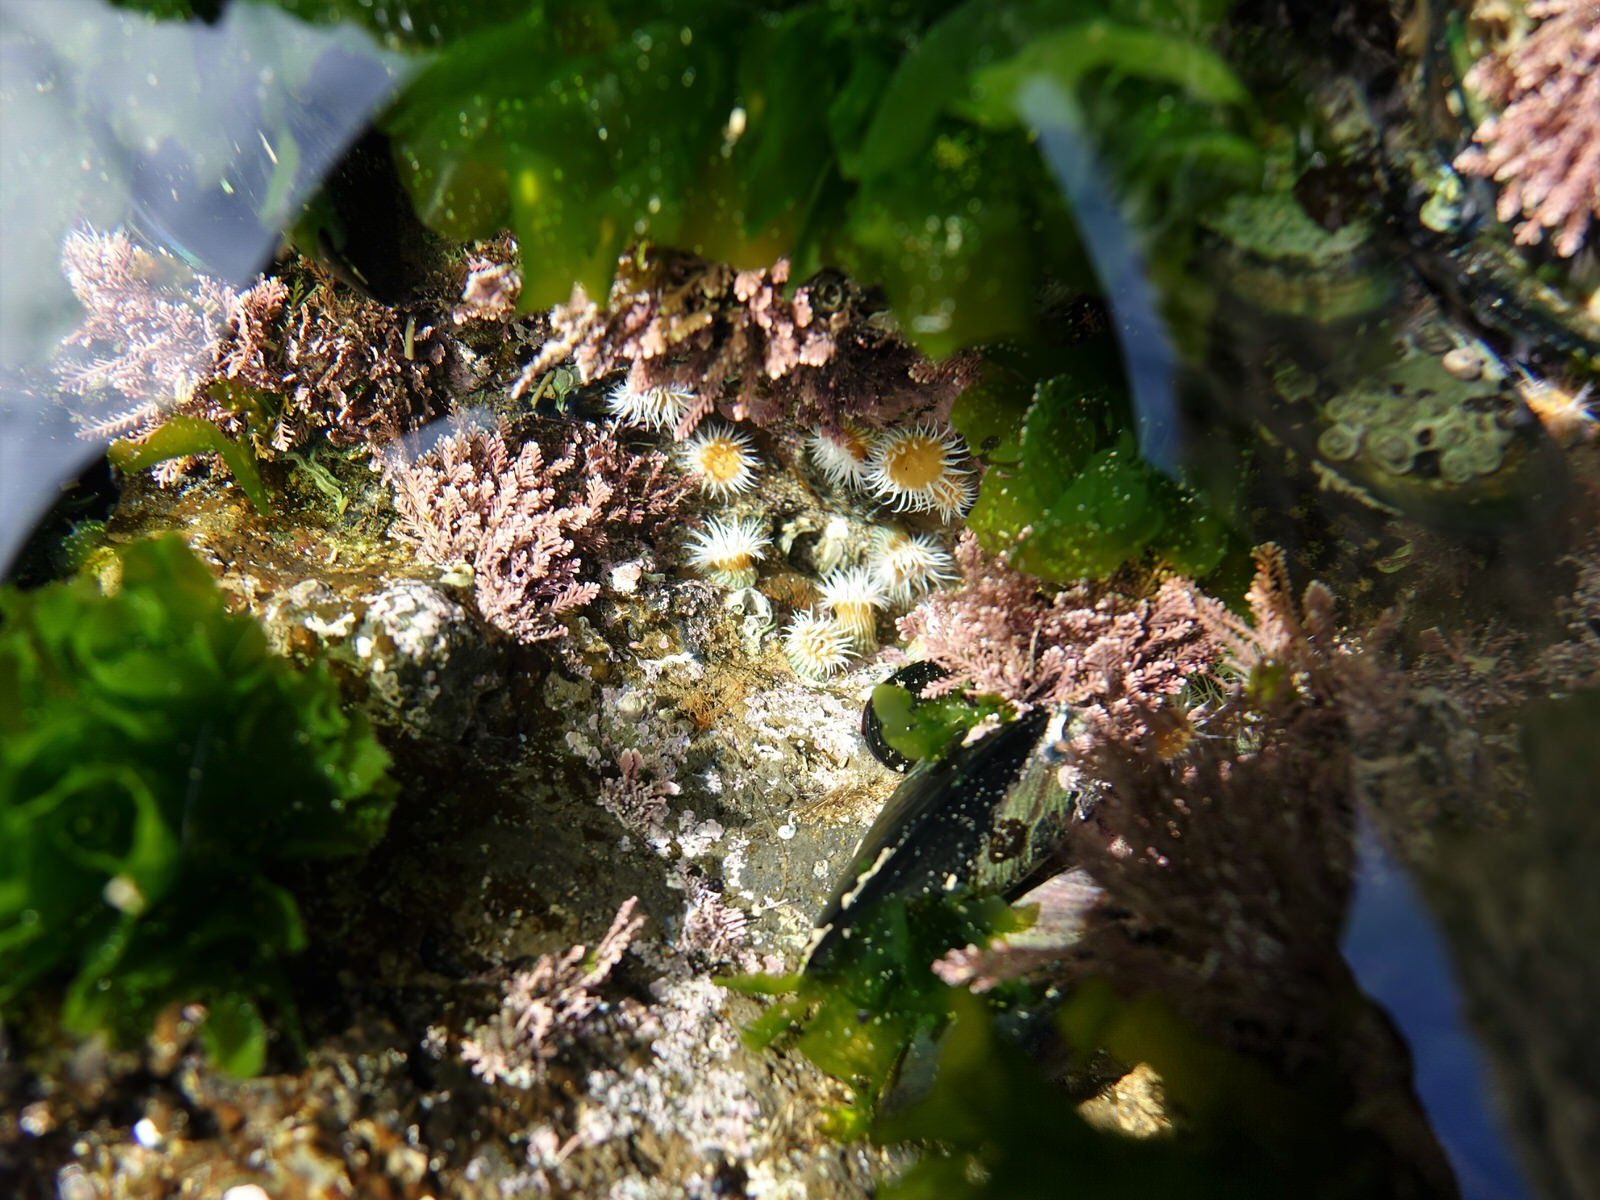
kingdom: Animalia
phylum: Cnidaria
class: Anthozoa
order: Actiniaria
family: Sagartiidae
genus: Anthothoe
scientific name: Anthothoe albocincta
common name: Orange striped anemone
